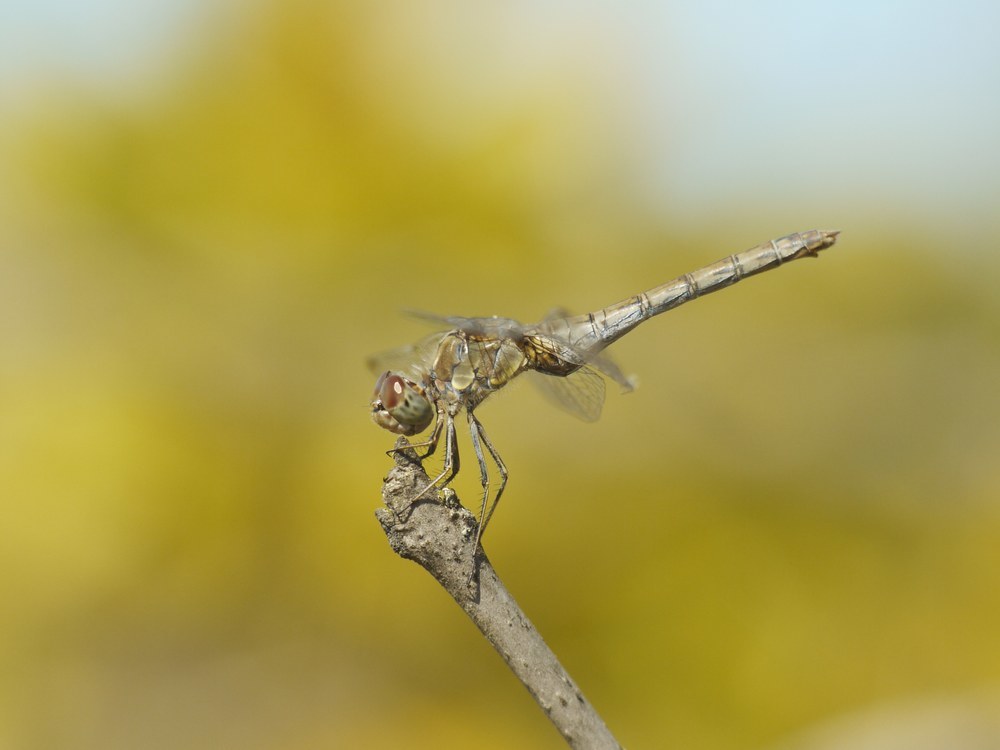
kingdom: Animalia
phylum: Arthropoda
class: Insecta
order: Odonata
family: Libellulidae
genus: Sympetrum
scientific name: Sympetrum striolatum
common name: Common darter
